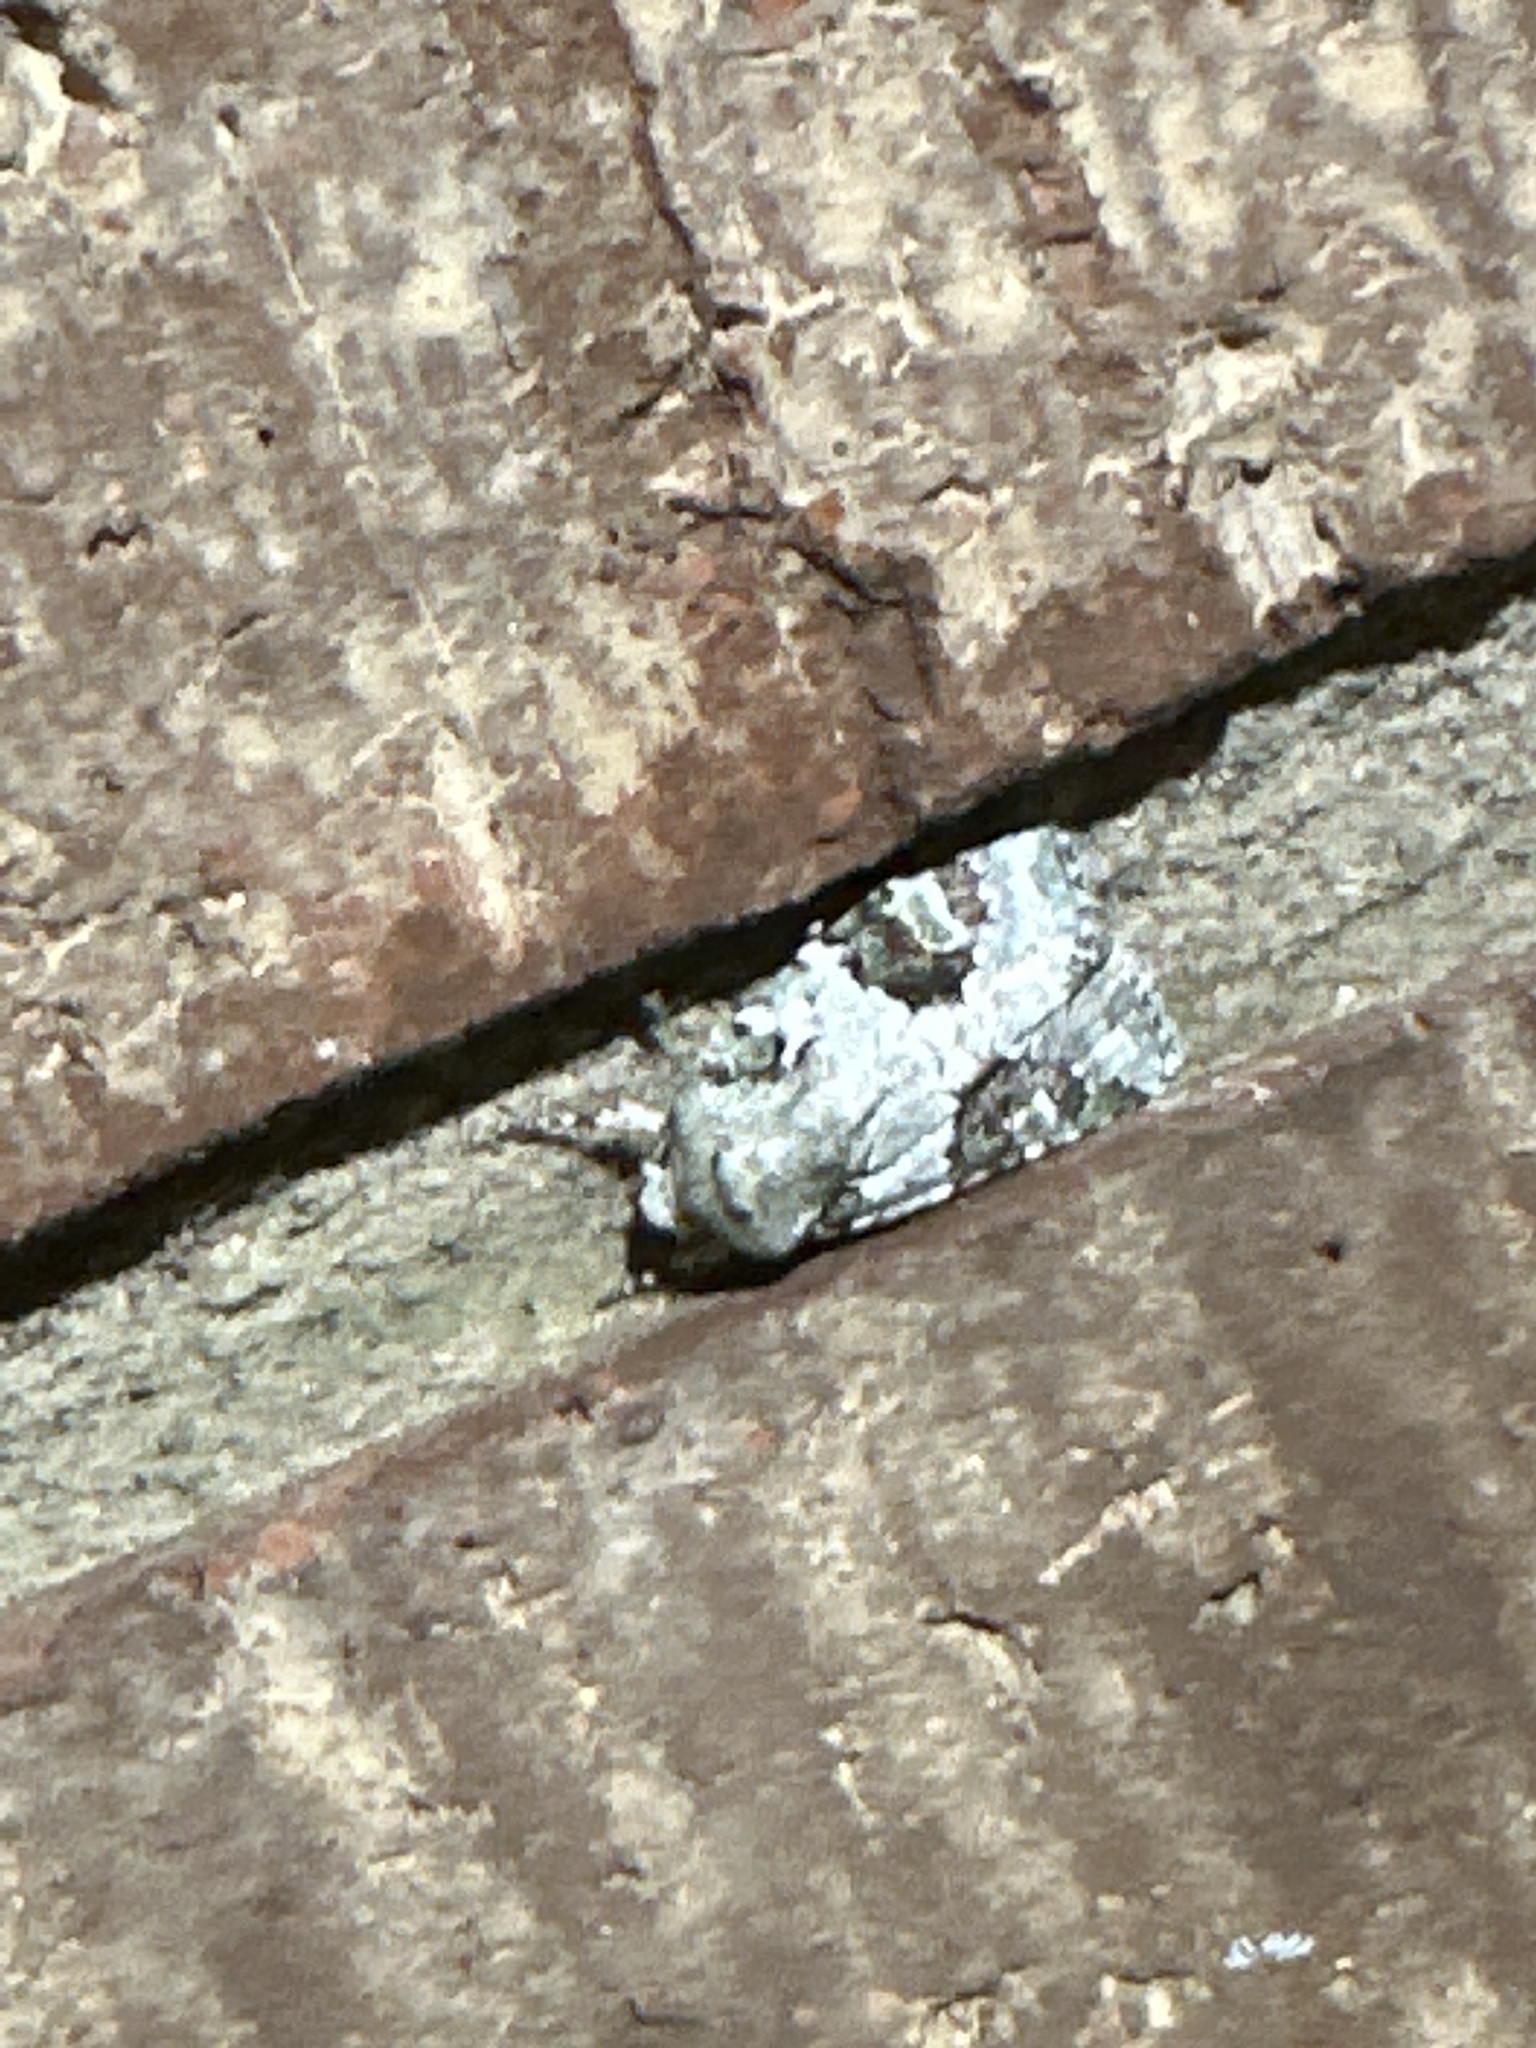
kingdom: Animalia
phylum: Arthropoda
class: Insecta
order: Lepidoptera
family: Noctuidae
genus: Lacinipolia
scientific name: Lacinipolia laudabilis
